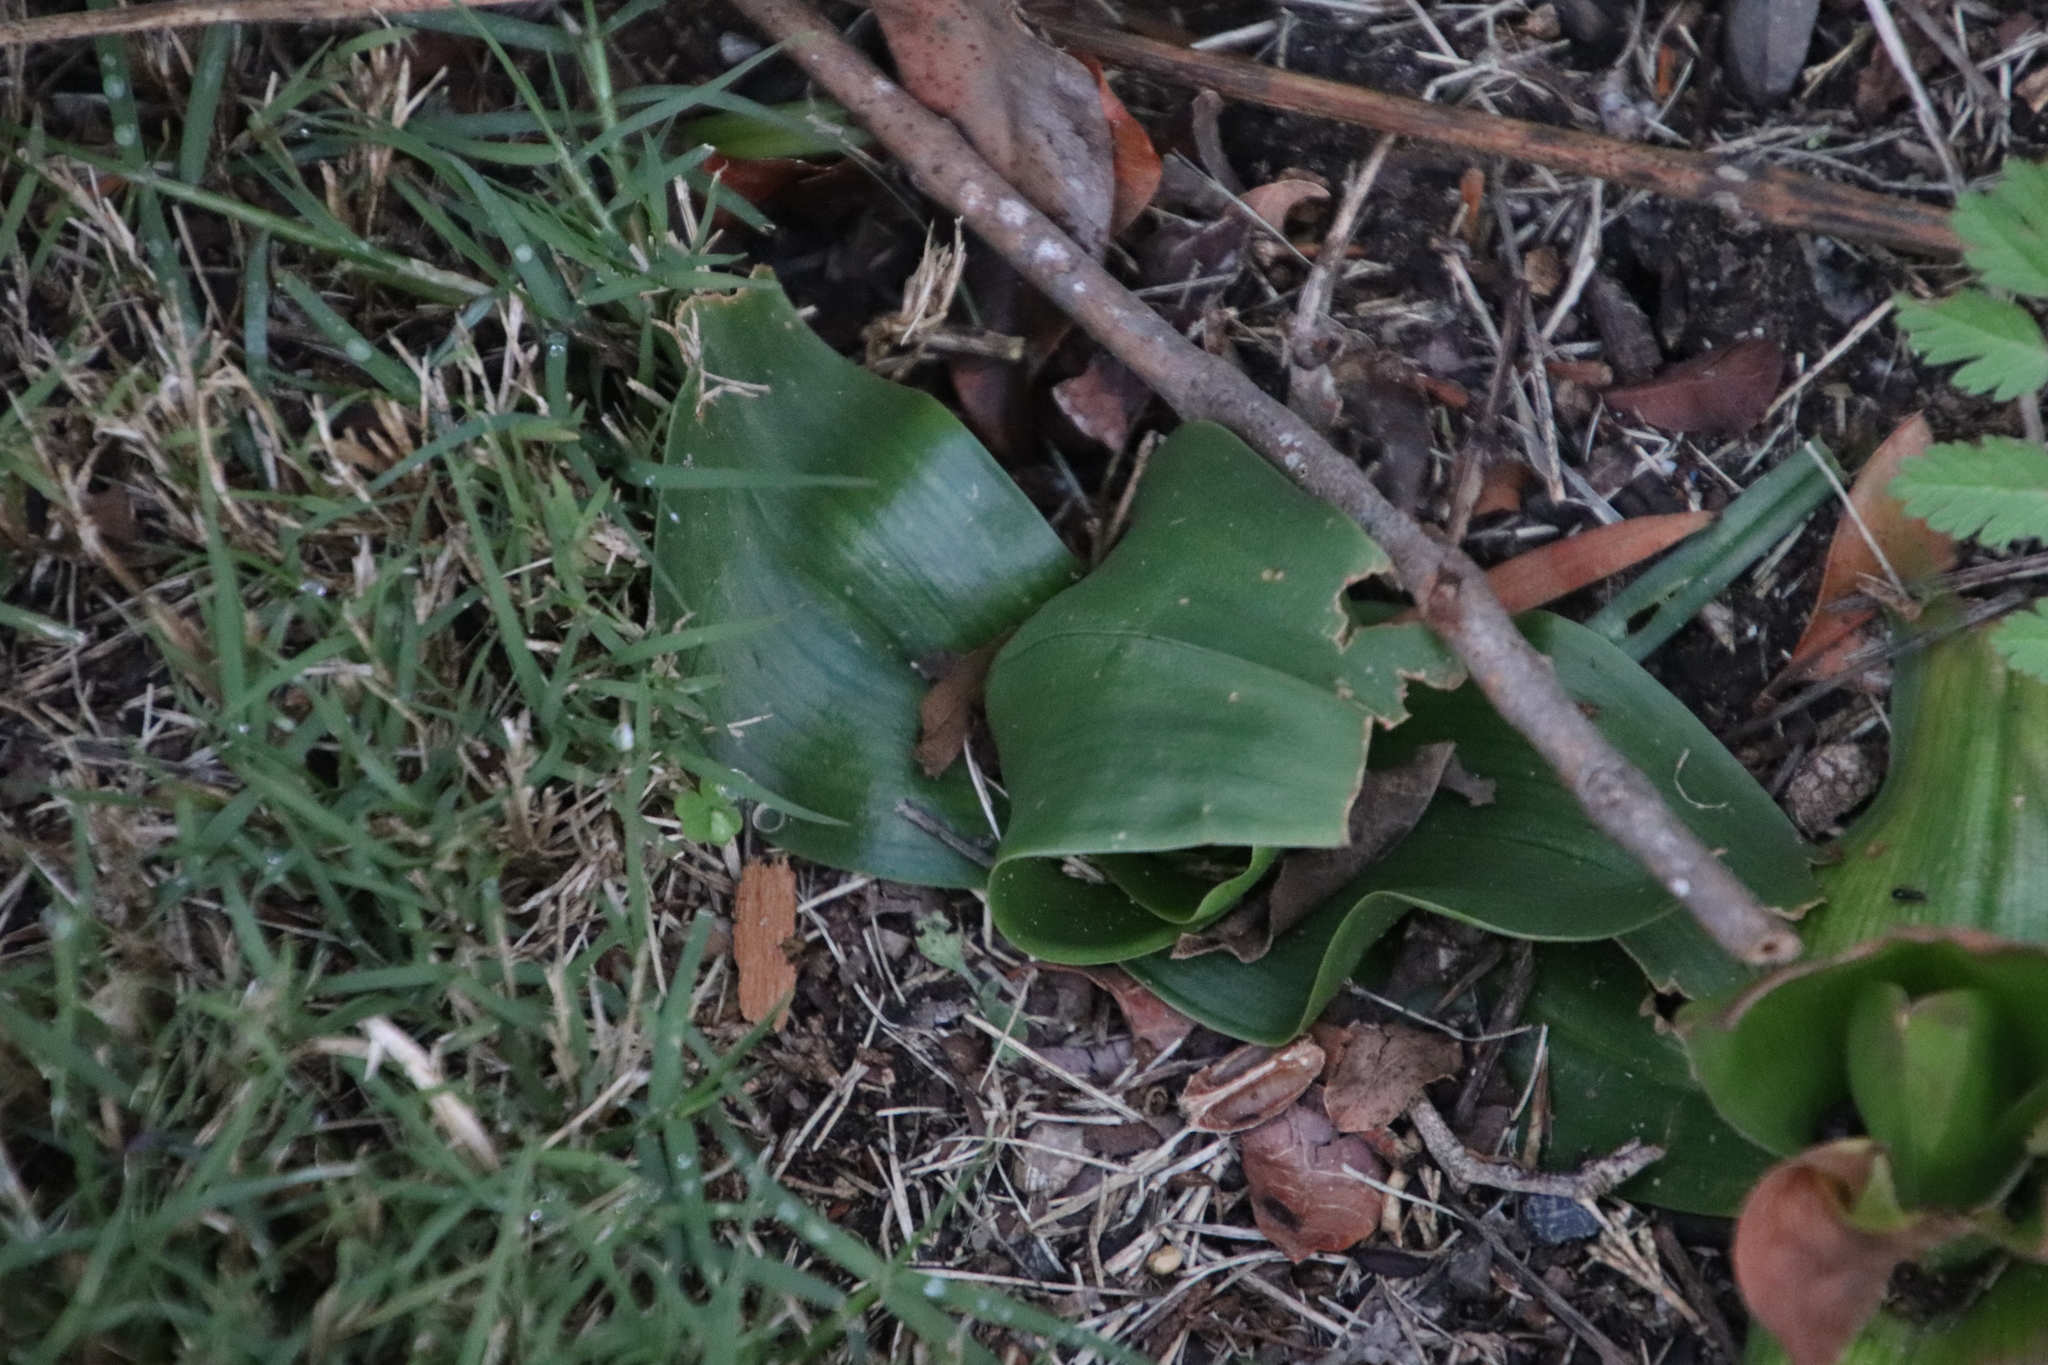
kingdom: Plantae
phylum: Tracheophyta
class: Liliopsida
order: Liliales
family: Colchicaceae
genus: Colchicum
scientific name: Colchicum eucomoides
